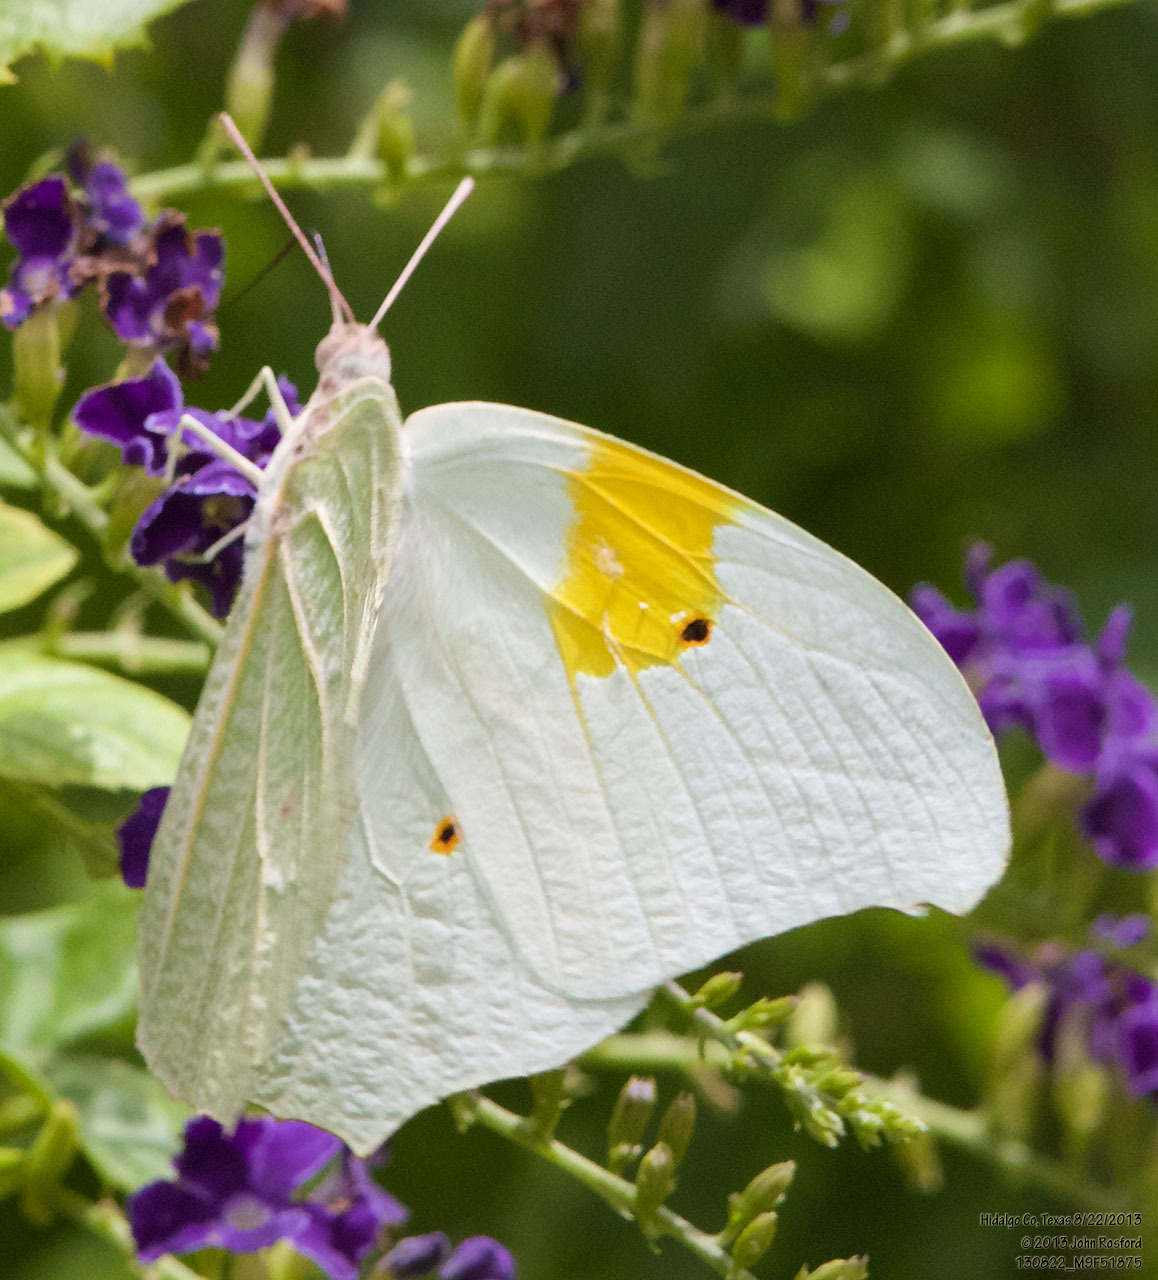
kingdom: Animalia
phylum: Arthropoda
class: Insecta
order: Lepidoptera
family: Pieridae
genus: Anteos
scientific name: Anteos clorinde
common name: White angled sulphur
